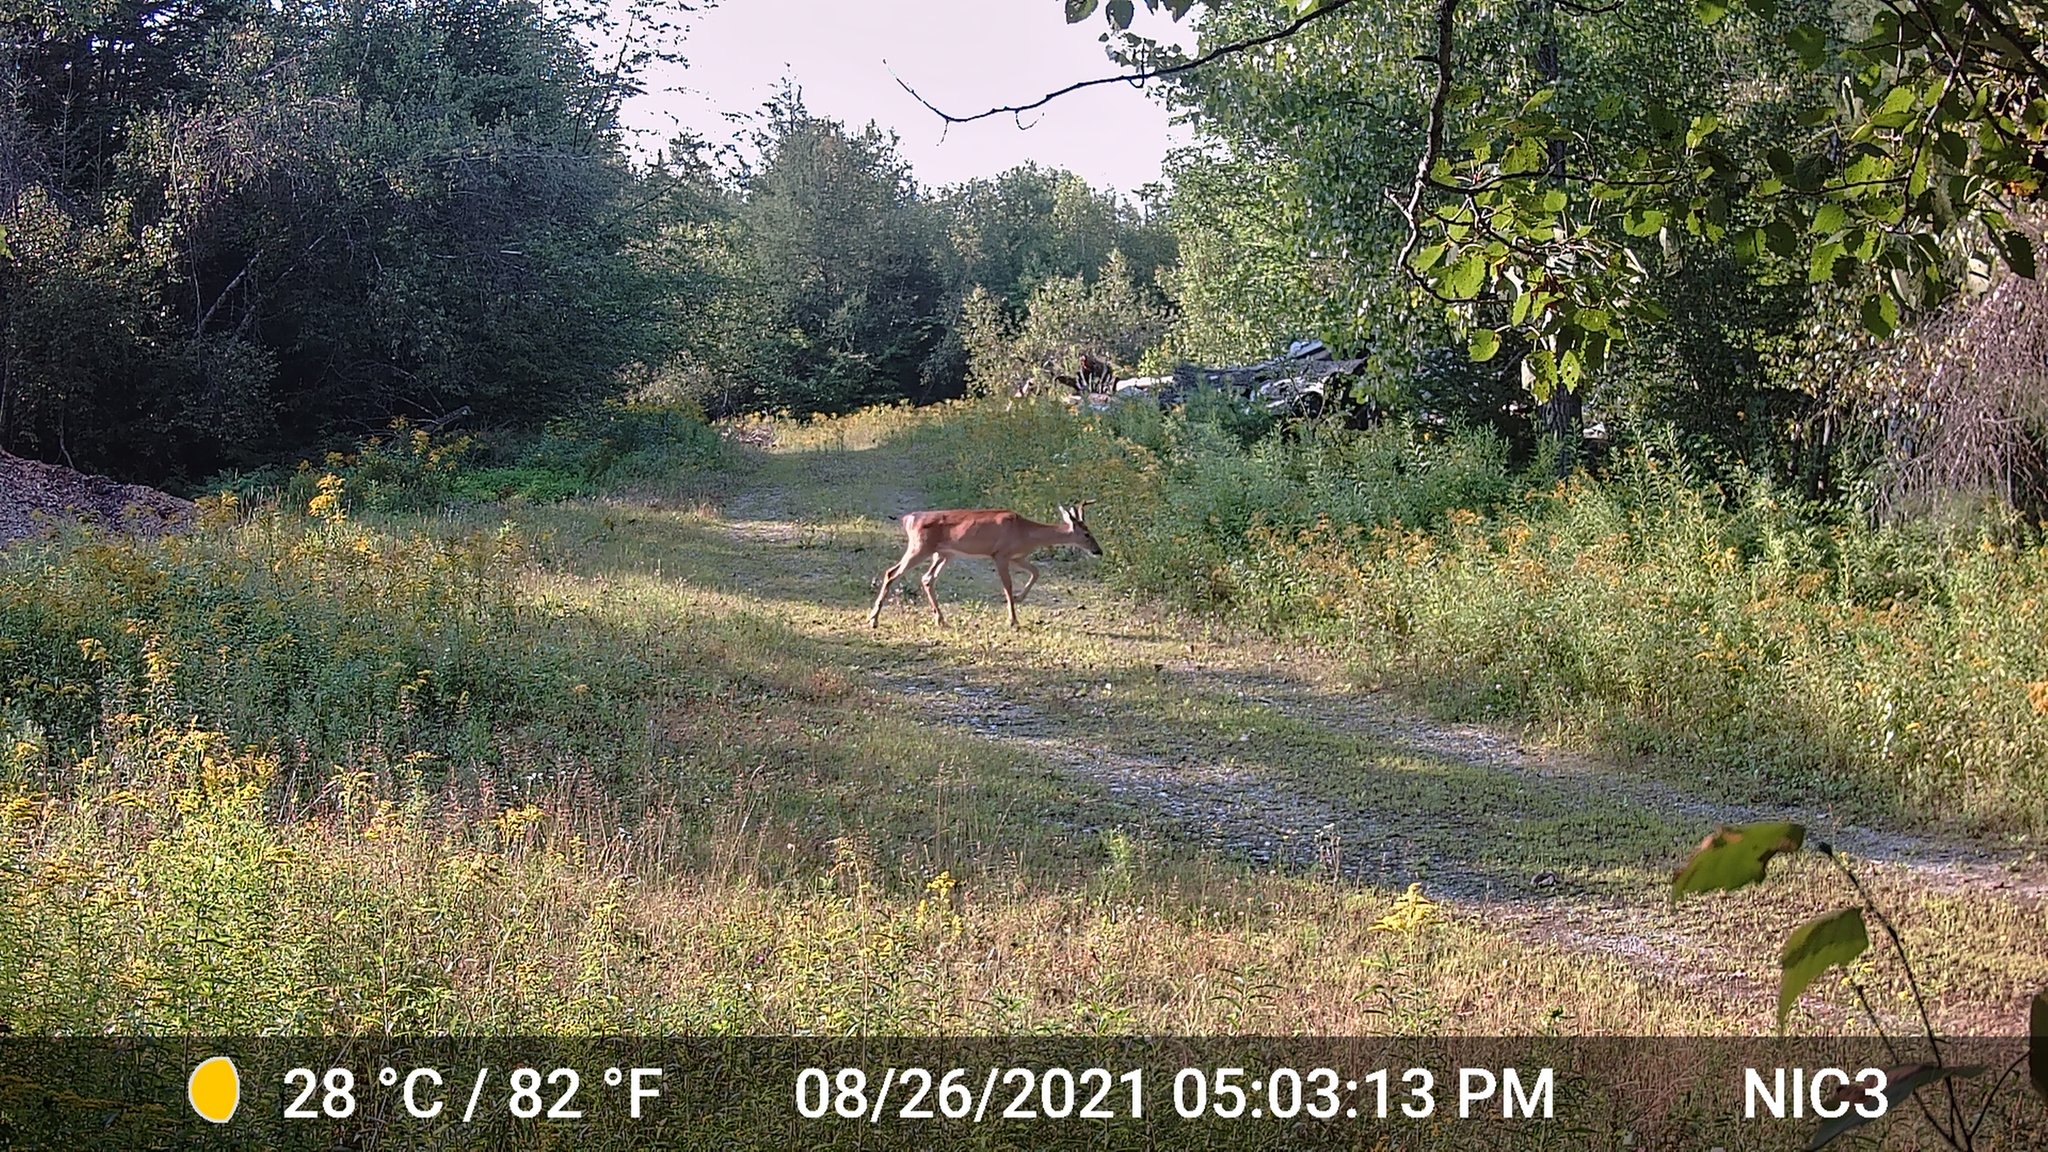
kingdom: Animalia
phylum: Chordata
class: Mammalia
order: Artiodactyla
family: Cervidae
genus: Odocoileus
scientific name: Odocoileus virginianus
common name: White-tailed deer
